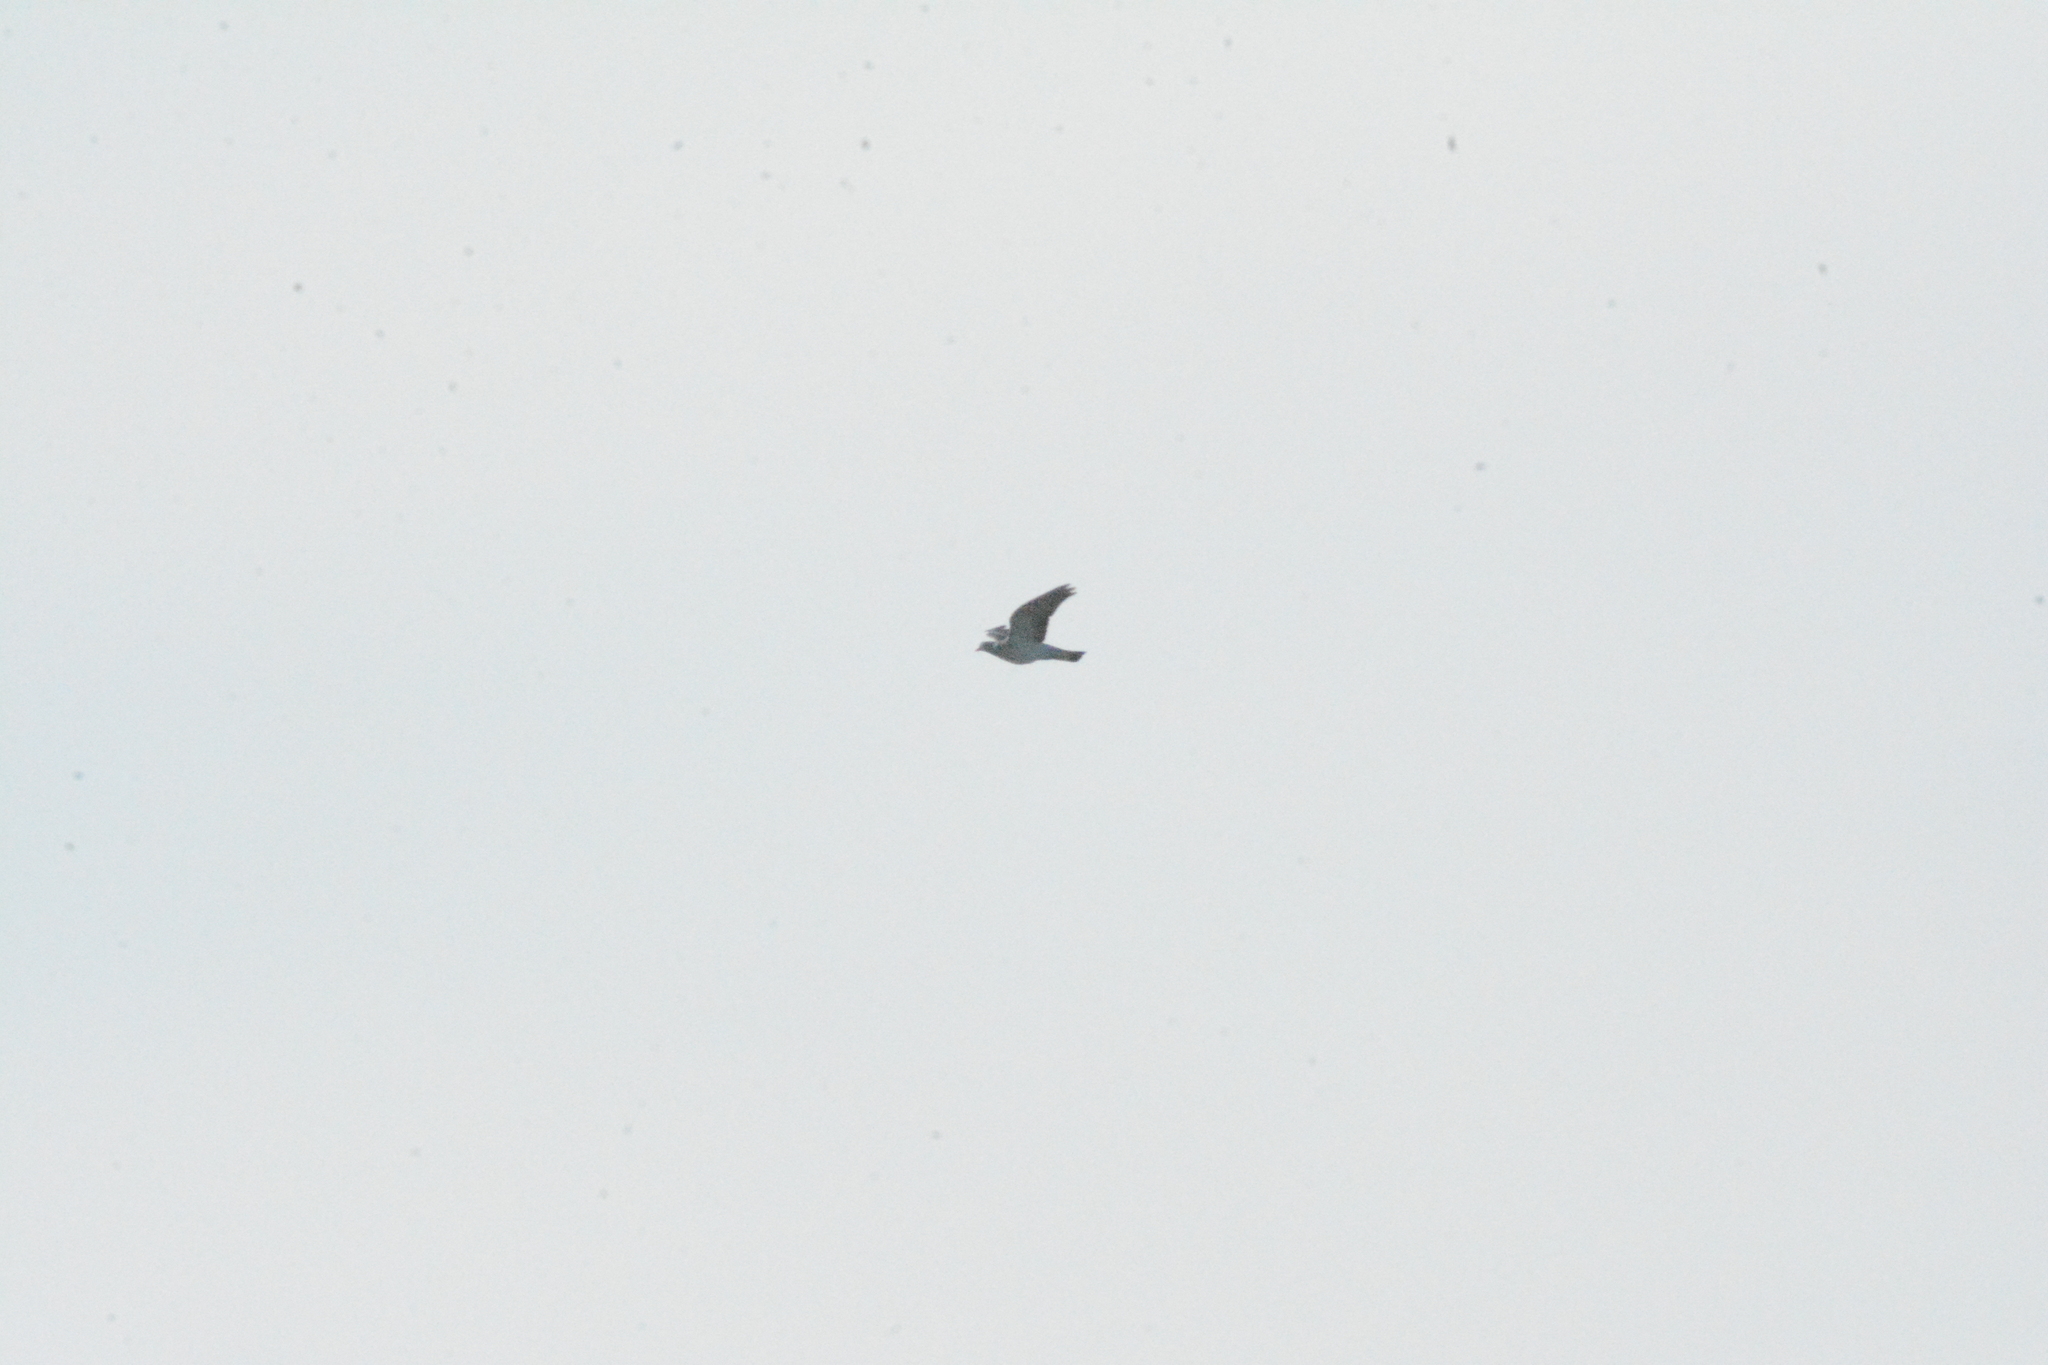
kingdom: Animalia
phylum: Chordata
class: Aves
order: Columbiformes
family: Columbidae
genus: Columba
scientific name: Columba palumbus
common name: Common wood pigeon
